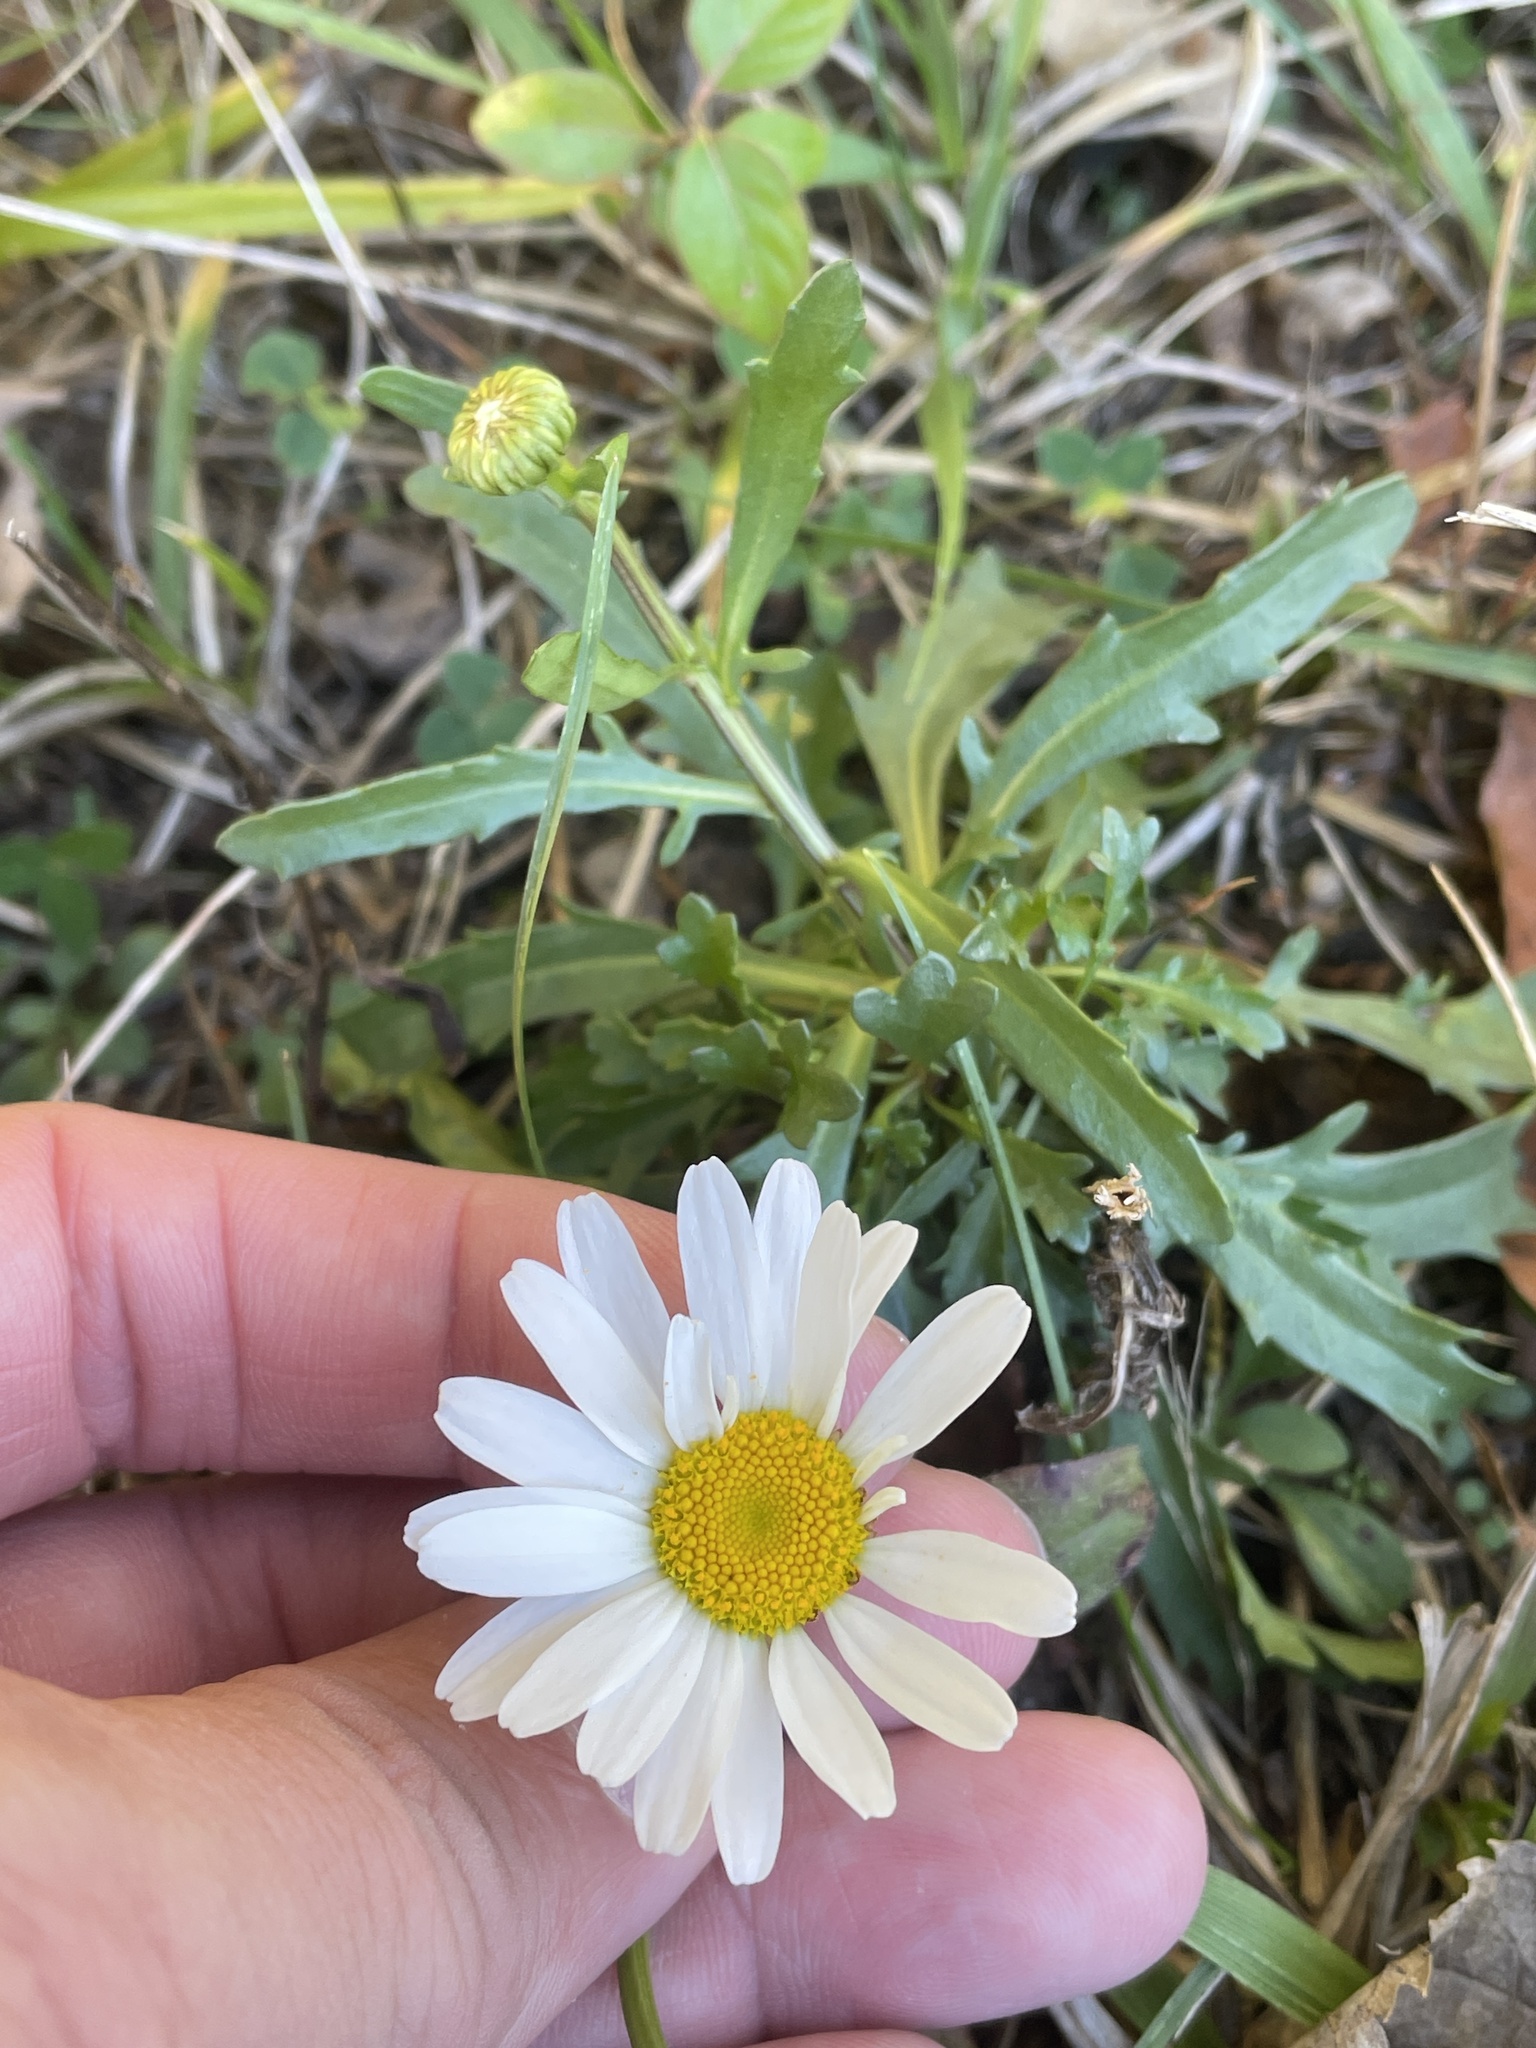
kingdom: Plantae
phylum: Tracheophyta
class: Magnoliopsida
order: Asterales
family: Asteraceae
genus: Leucanthemum
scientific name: Leucanthemum vulgare
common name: Oxeye daisy
